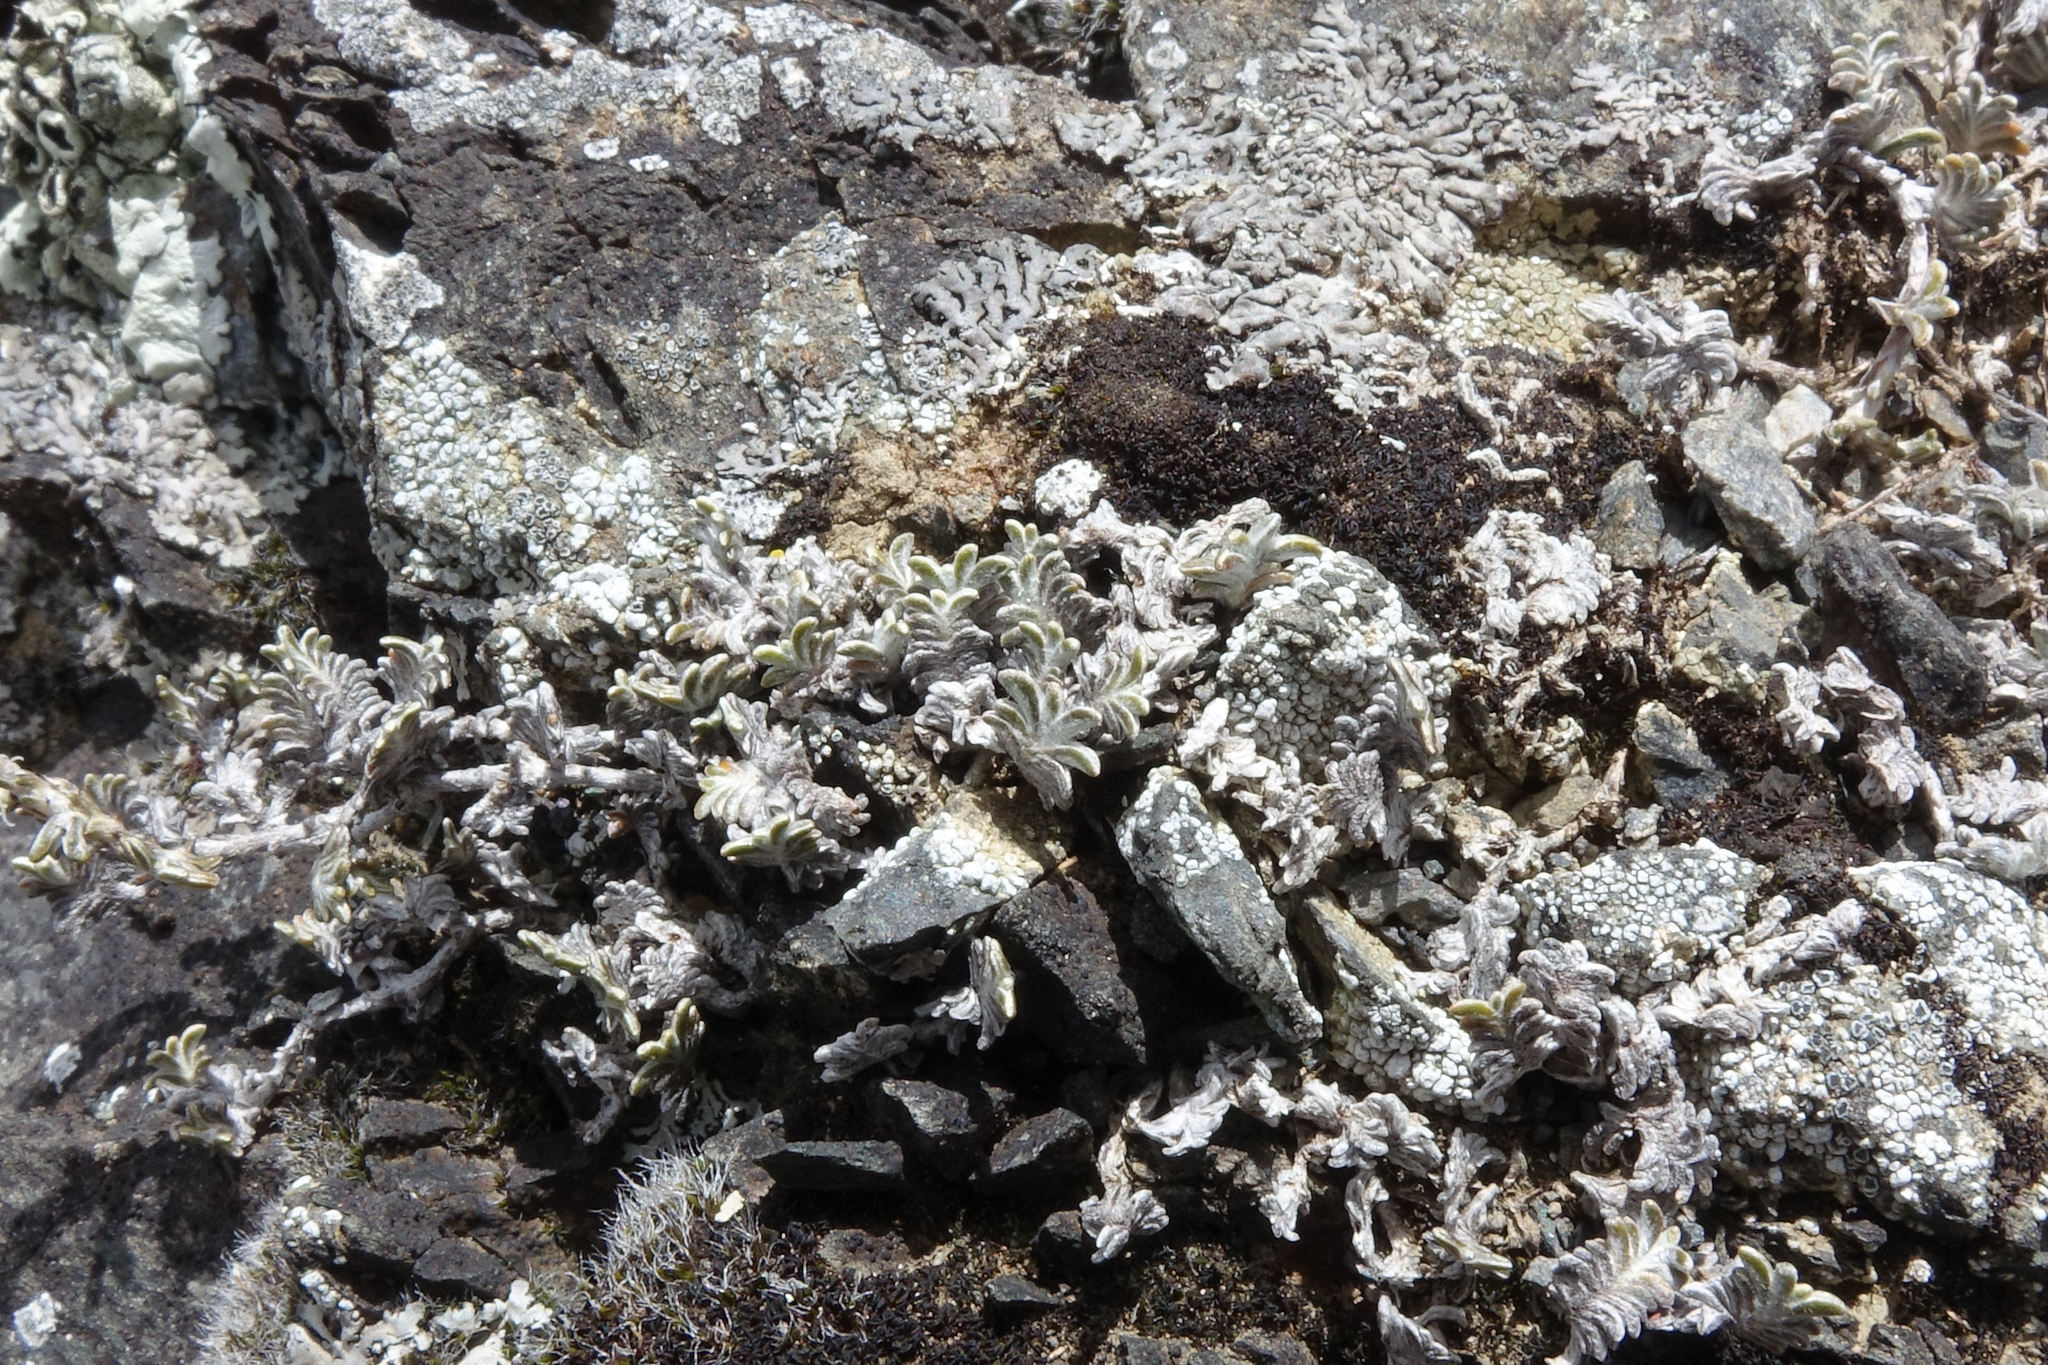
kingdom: Plantae
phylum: Tracheophyta
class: Magnoliopsida
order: Asterales
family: Asteraceae
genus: Raoulia
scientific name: Raoulia monroi
